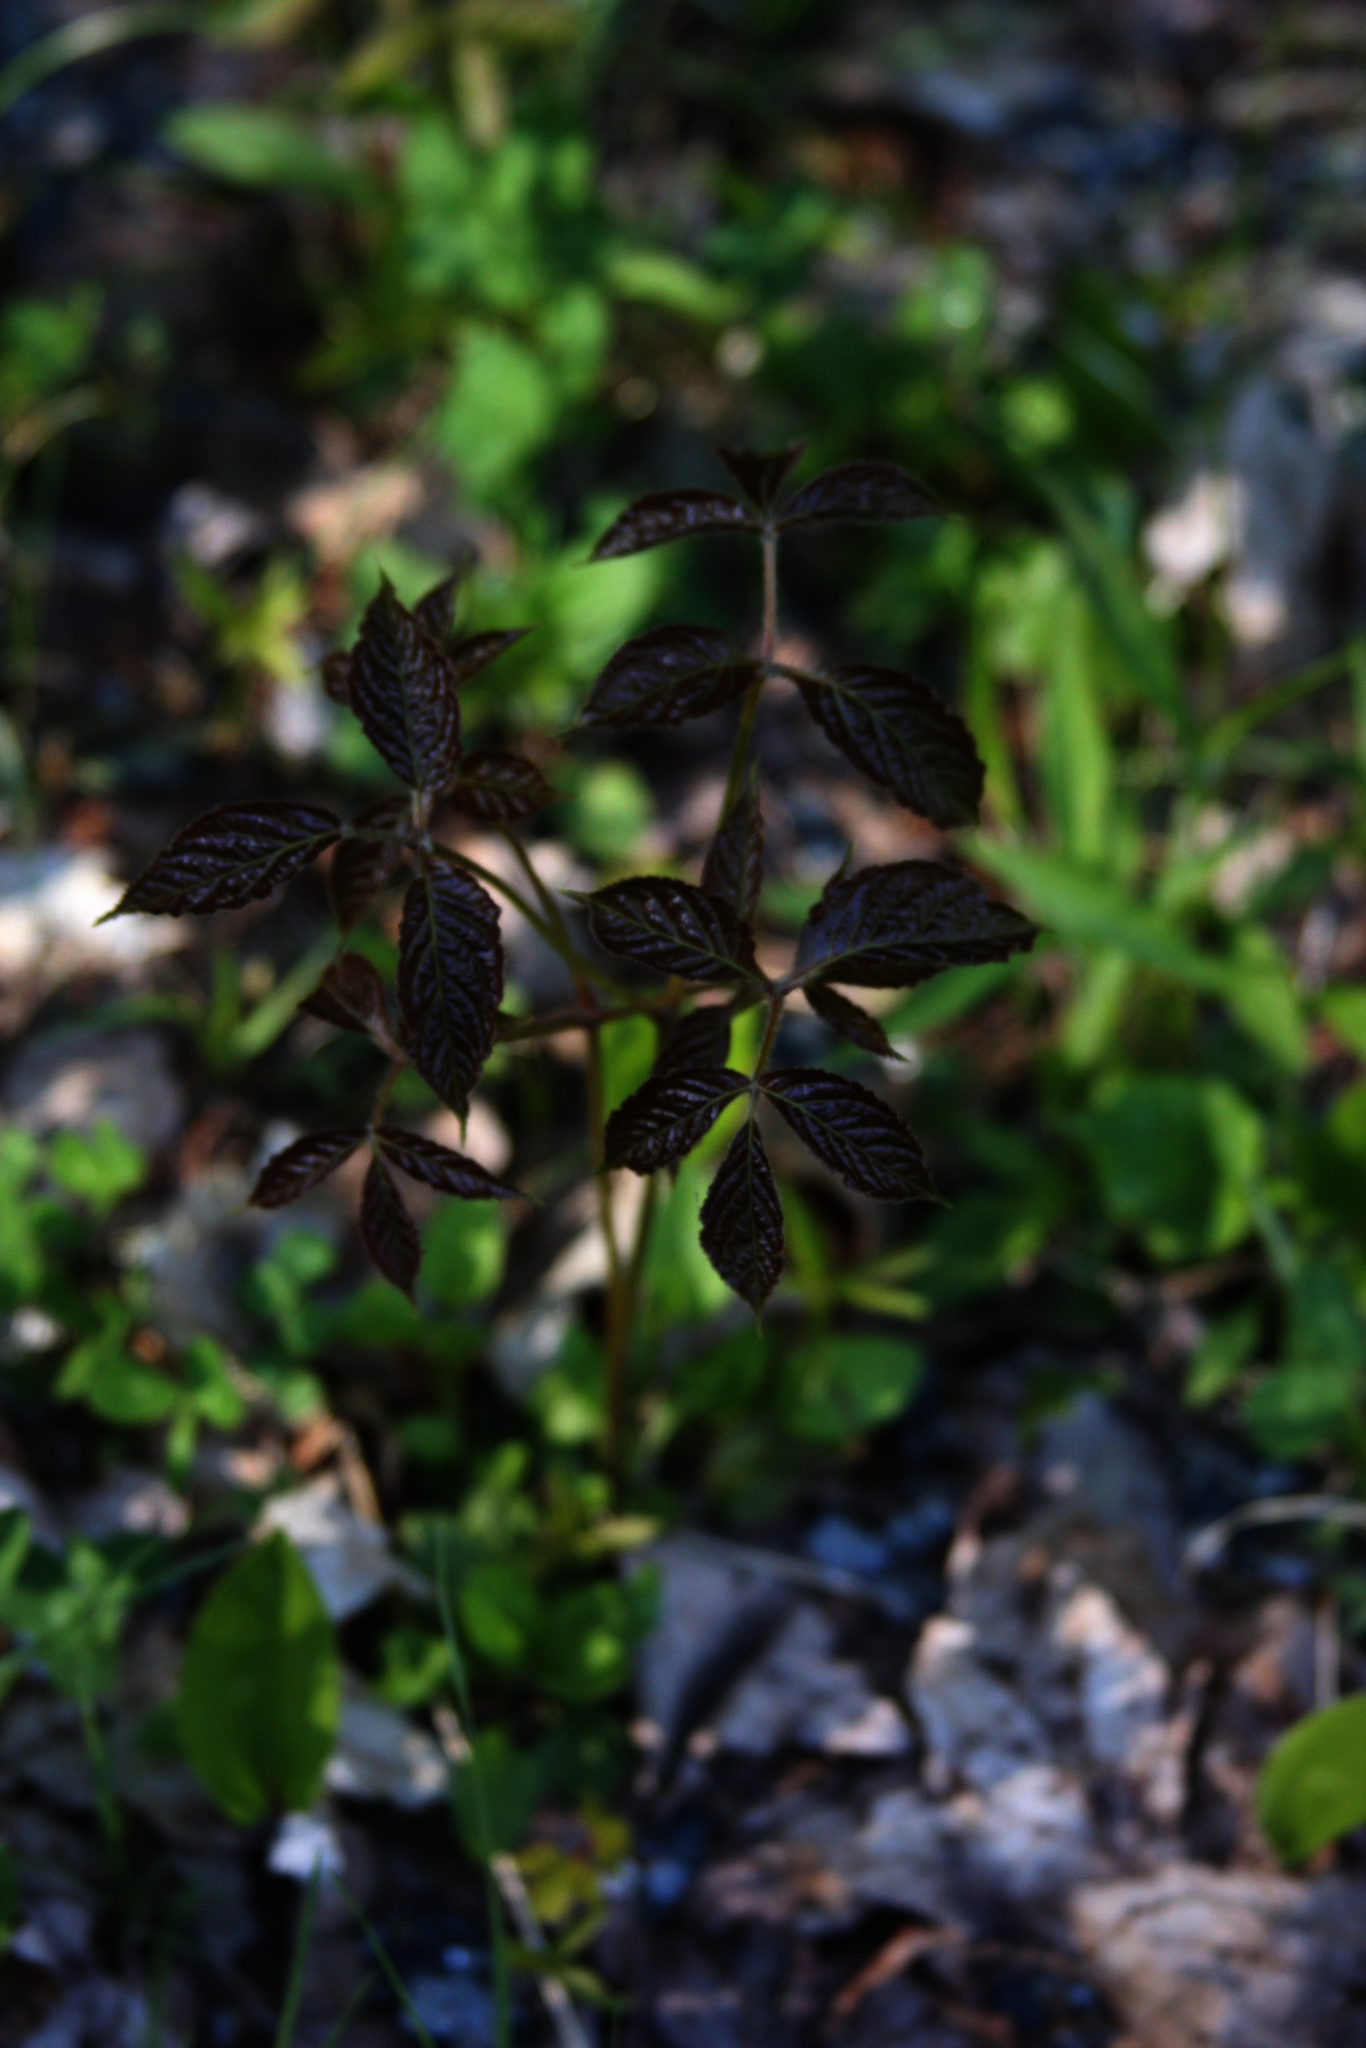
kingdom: Plantae
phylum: Tracheophyta
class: Magnoliopsida
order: Apiales
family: Araliaceae
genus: Aralia
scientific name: Aralia nudicaulis
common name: Wild sarsaparilla
